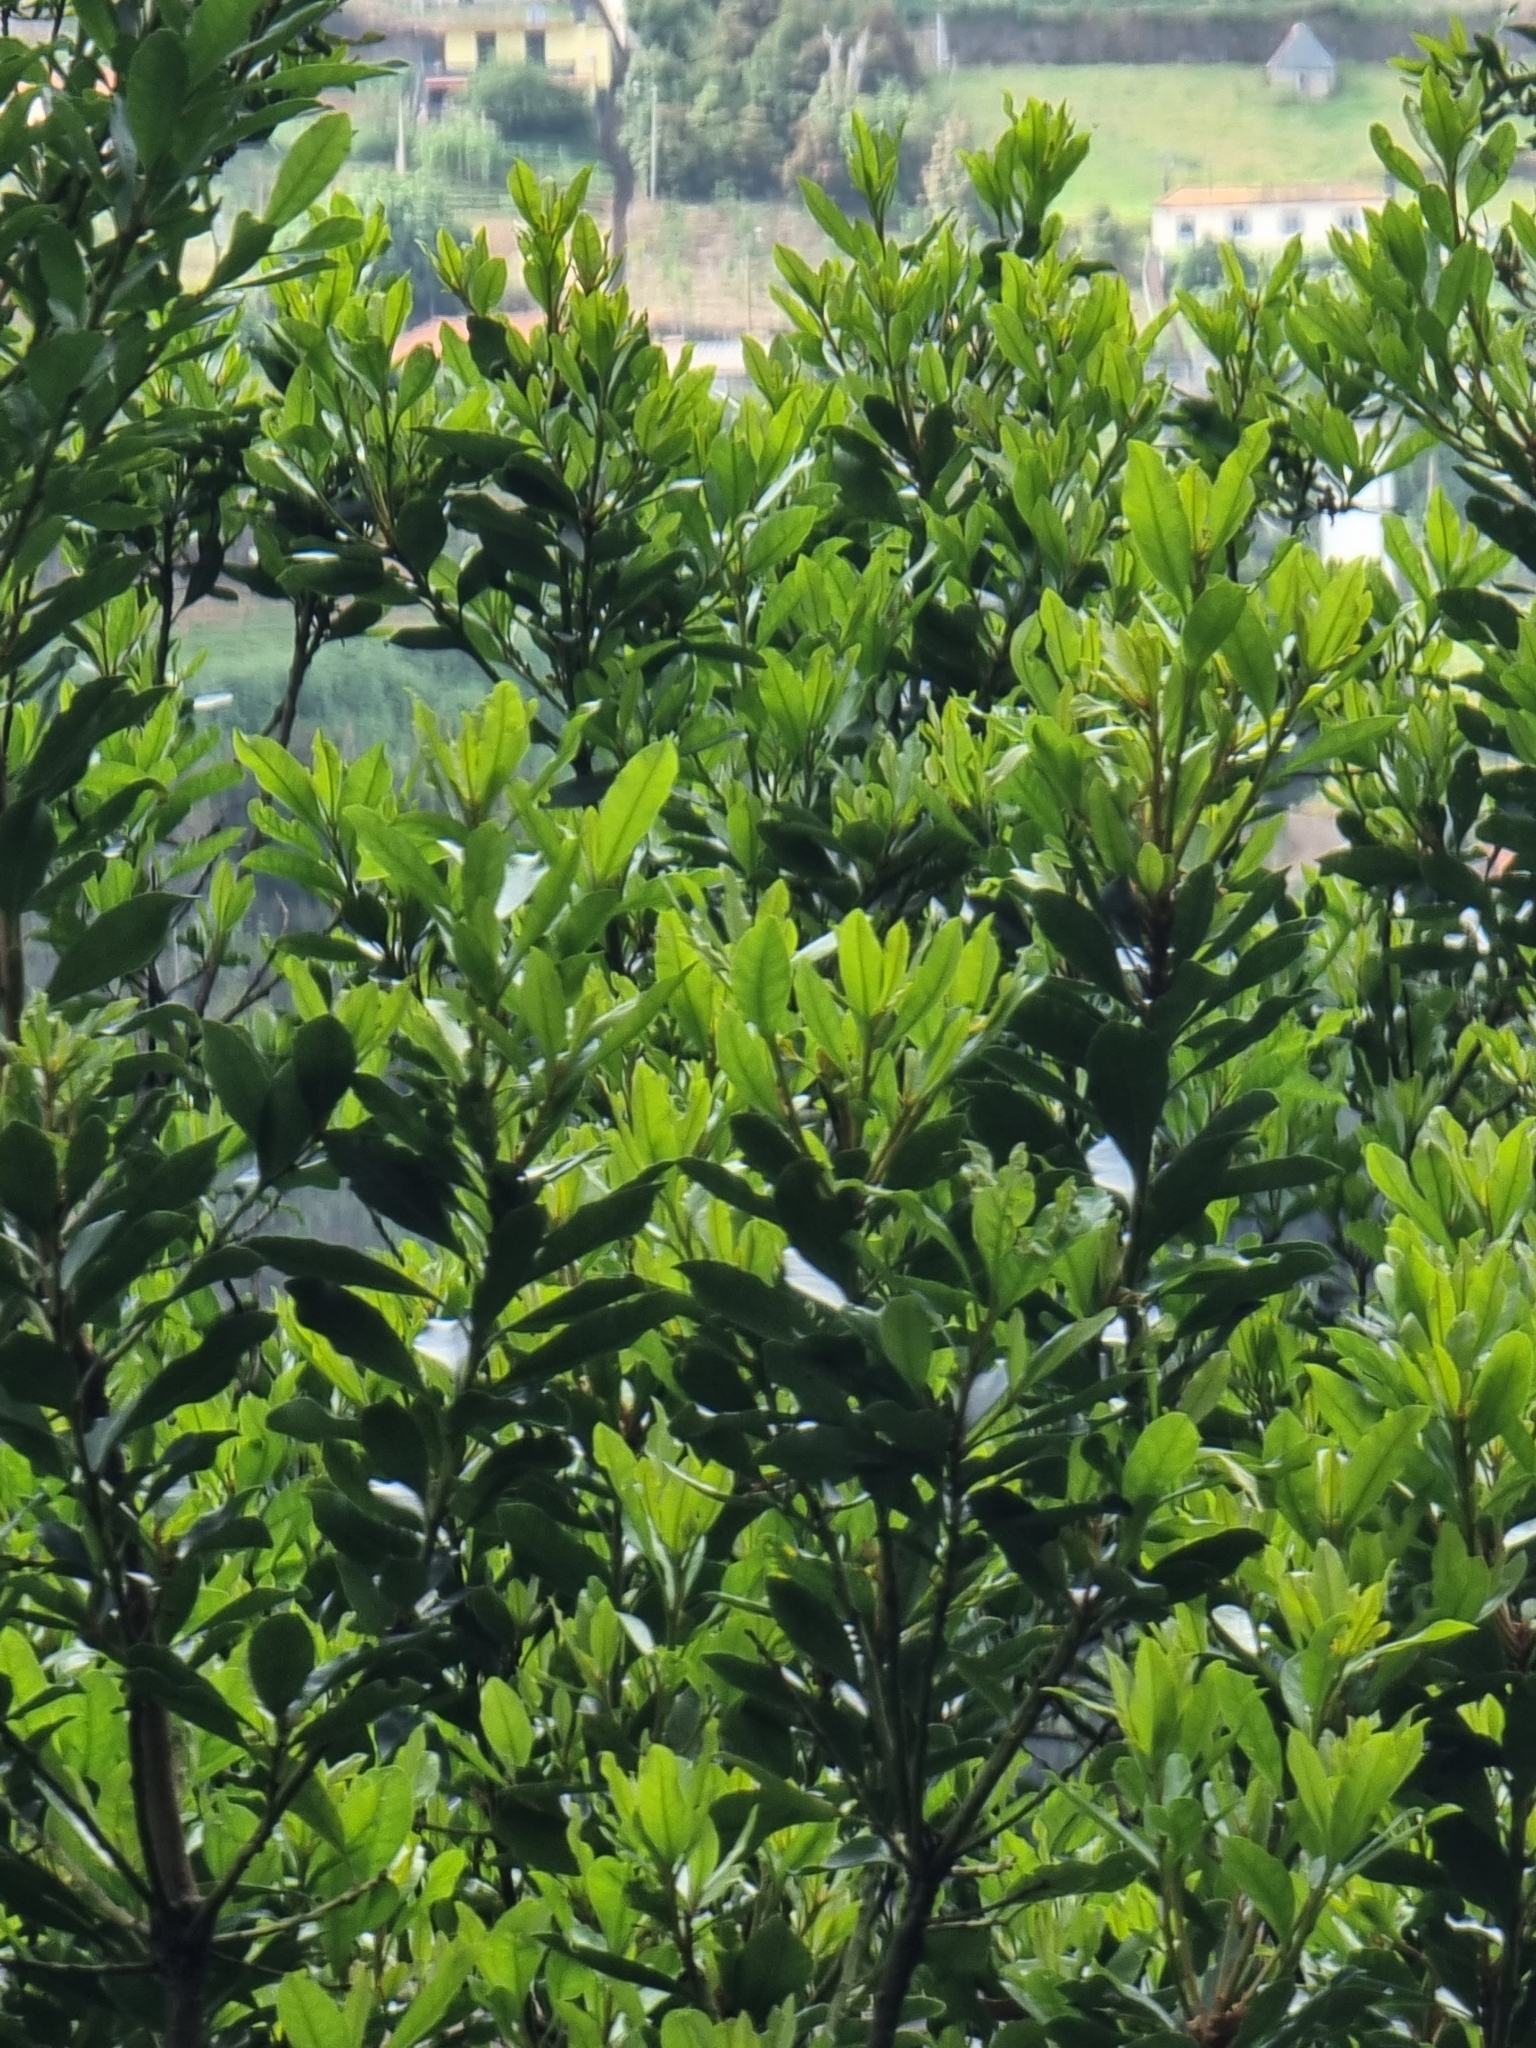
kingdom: Plantae
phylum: Tracheophyta
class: Magnoliopsida
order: Fagales
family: Myricaceae
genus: Morella
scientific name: Morella faya
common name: Firetree
